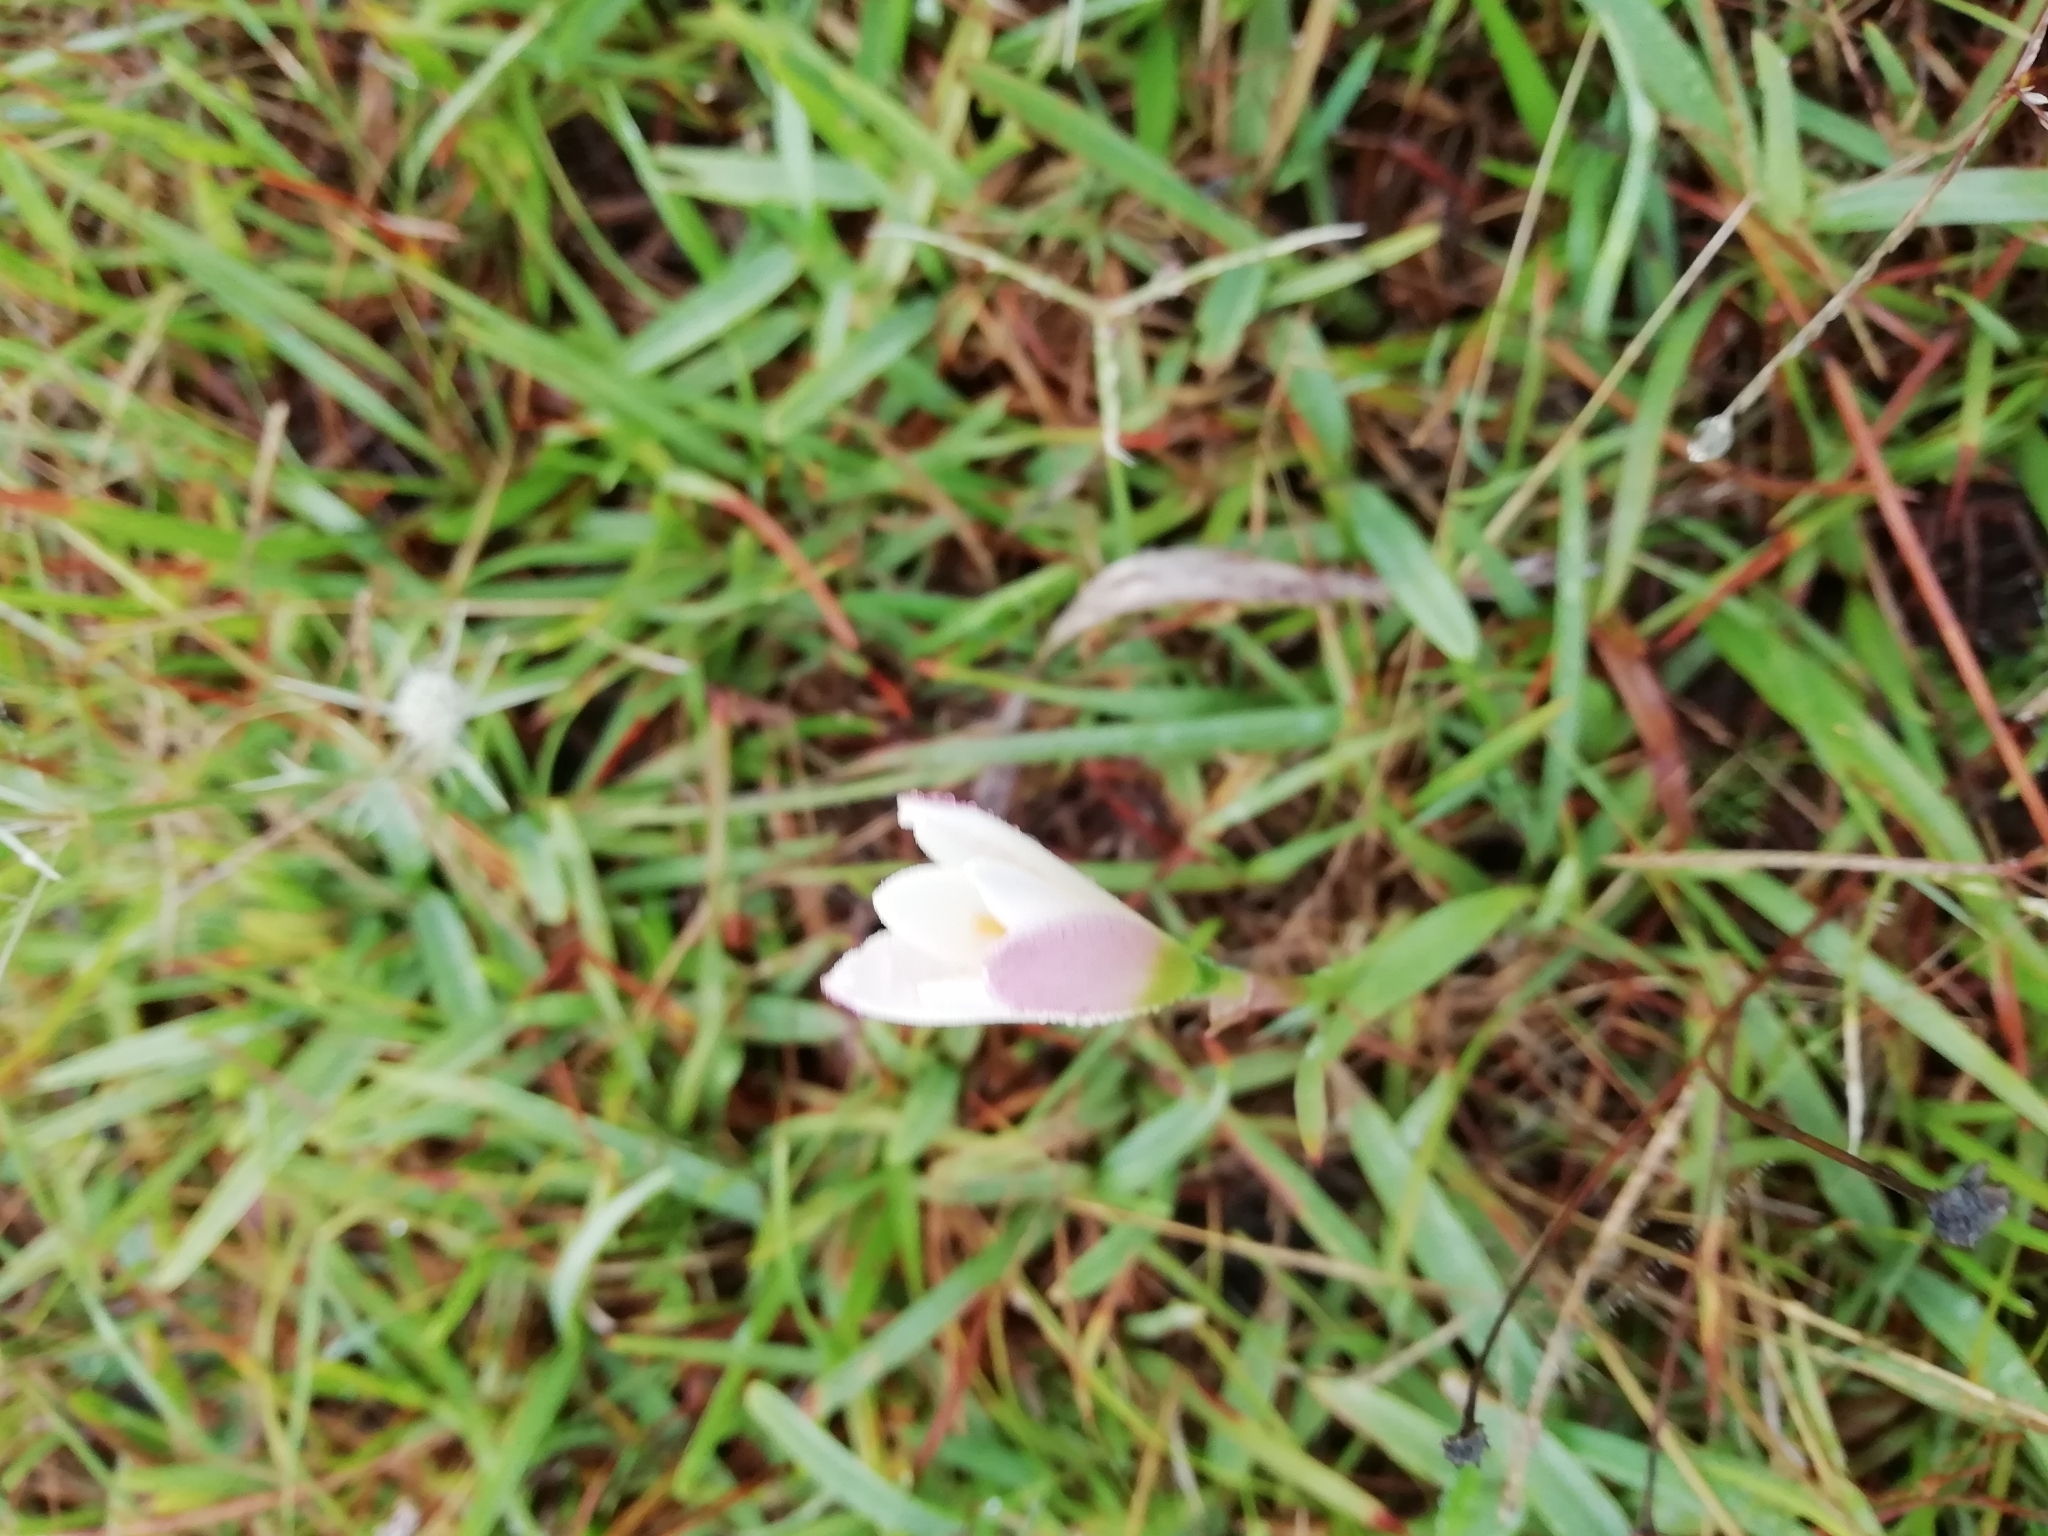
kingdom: Plantae
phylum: Tracheophyta
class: Liliopsida
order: Asparagales
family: Amaryllidaceae
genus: Zephyranthes
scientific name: Zephyranthes tubispatha
